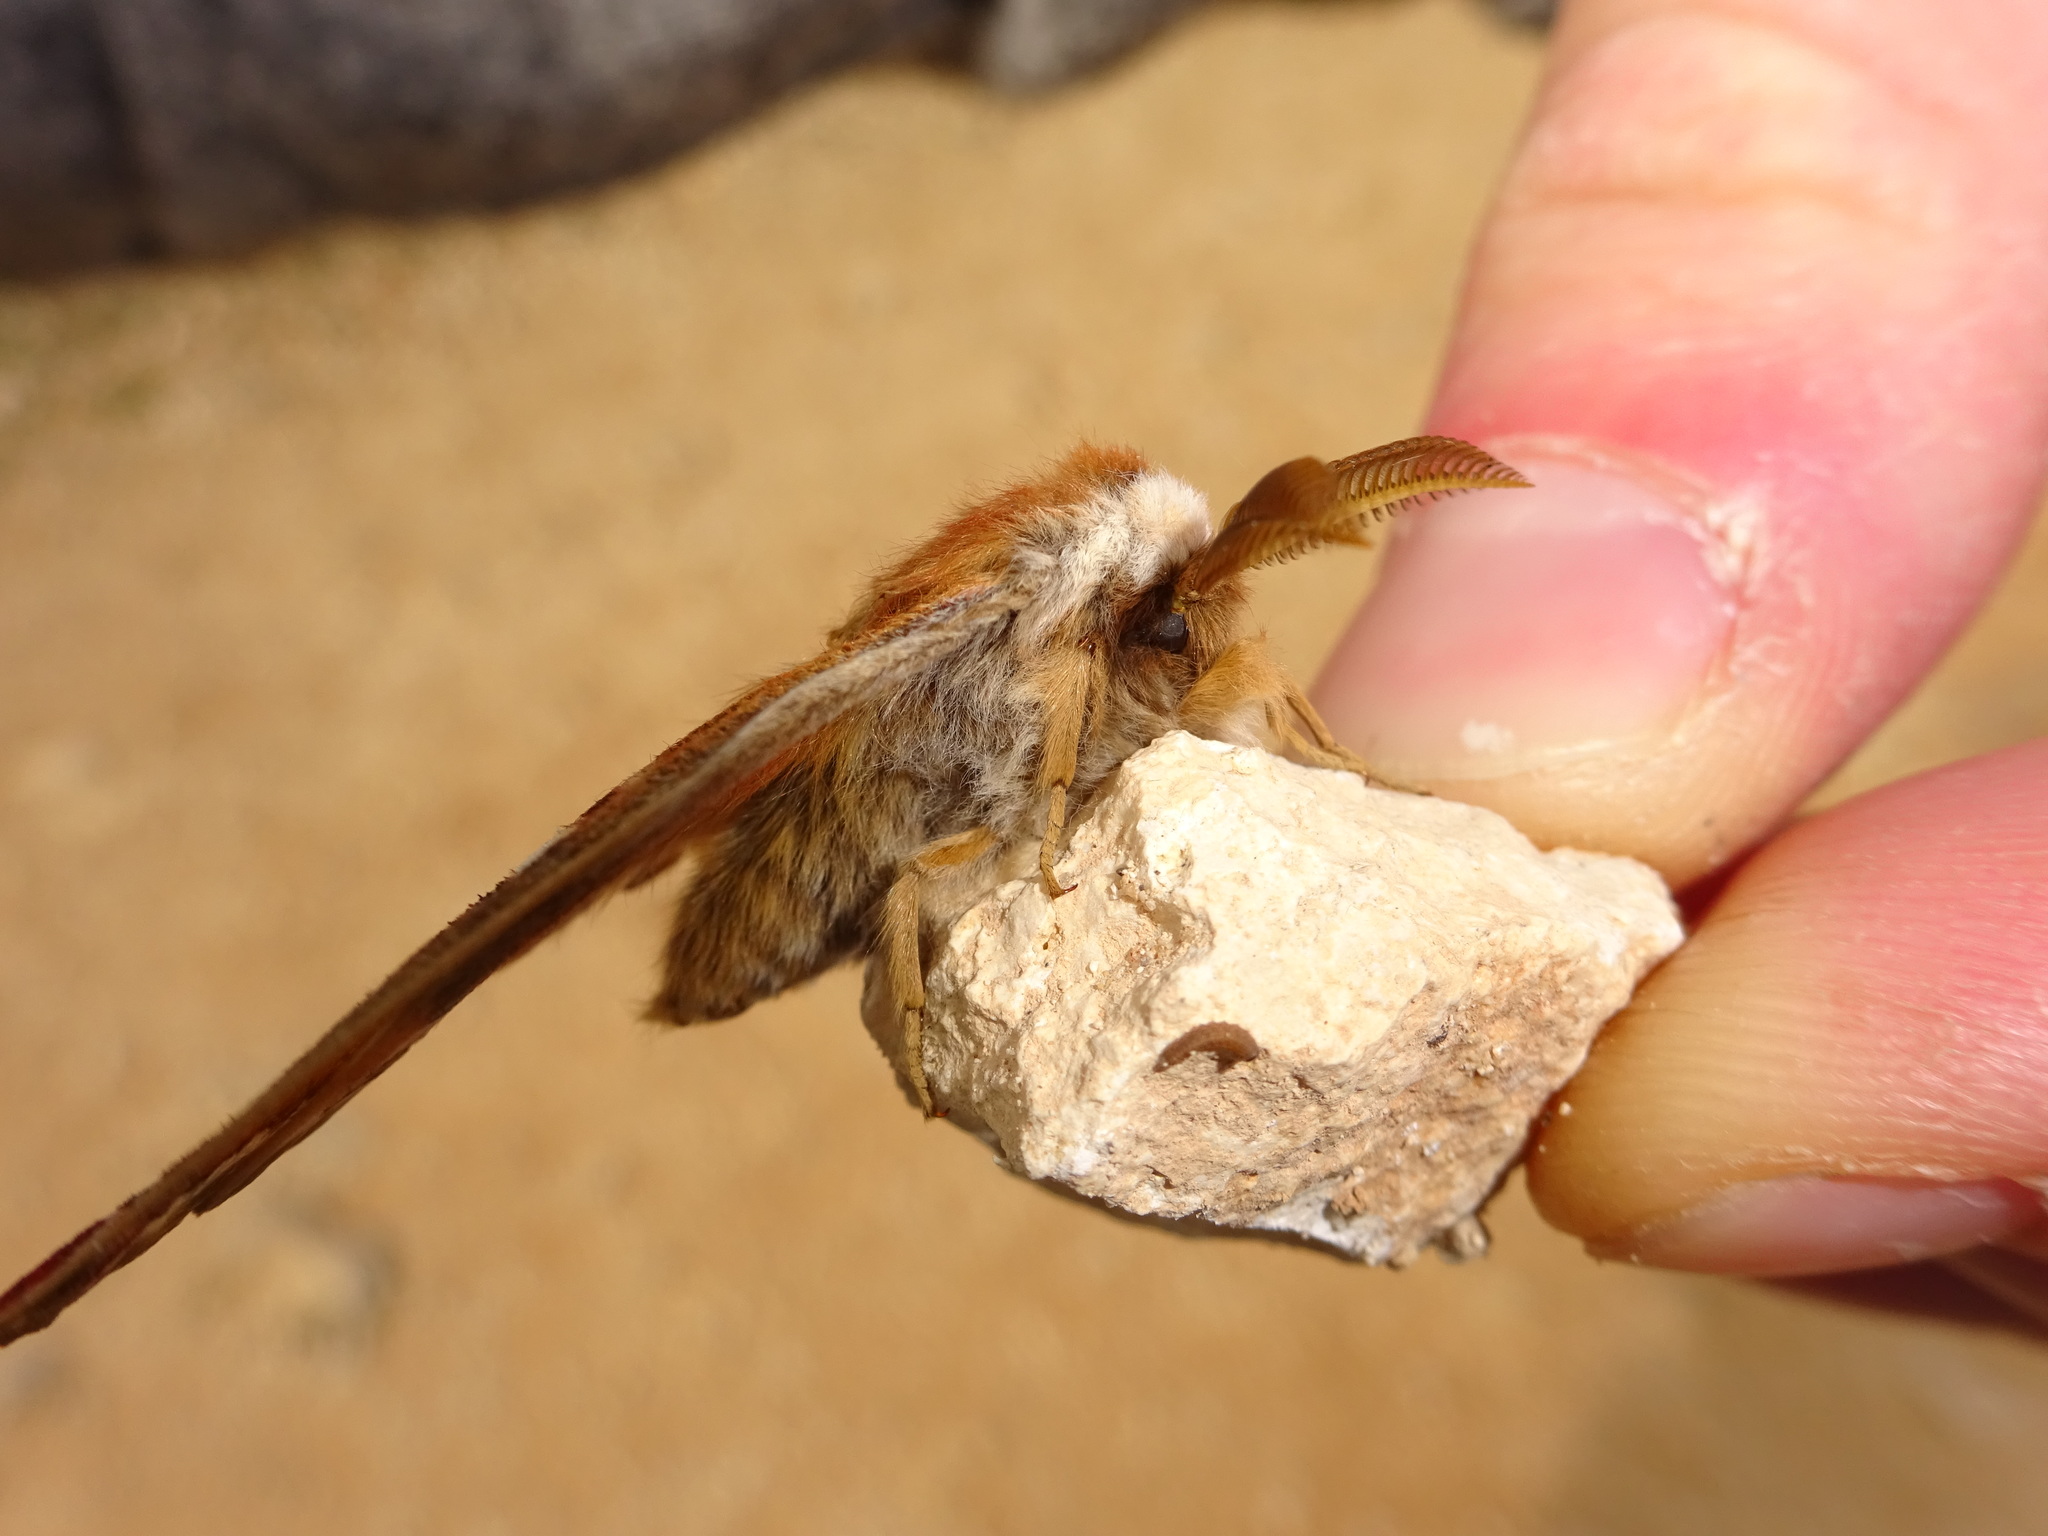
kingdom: Animalia
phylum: Arthropoda
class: Insecta
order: Lepidoptera
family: Saturniidae
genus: Saturnia
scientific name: Saturnia pavonia
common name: Emperor moth
